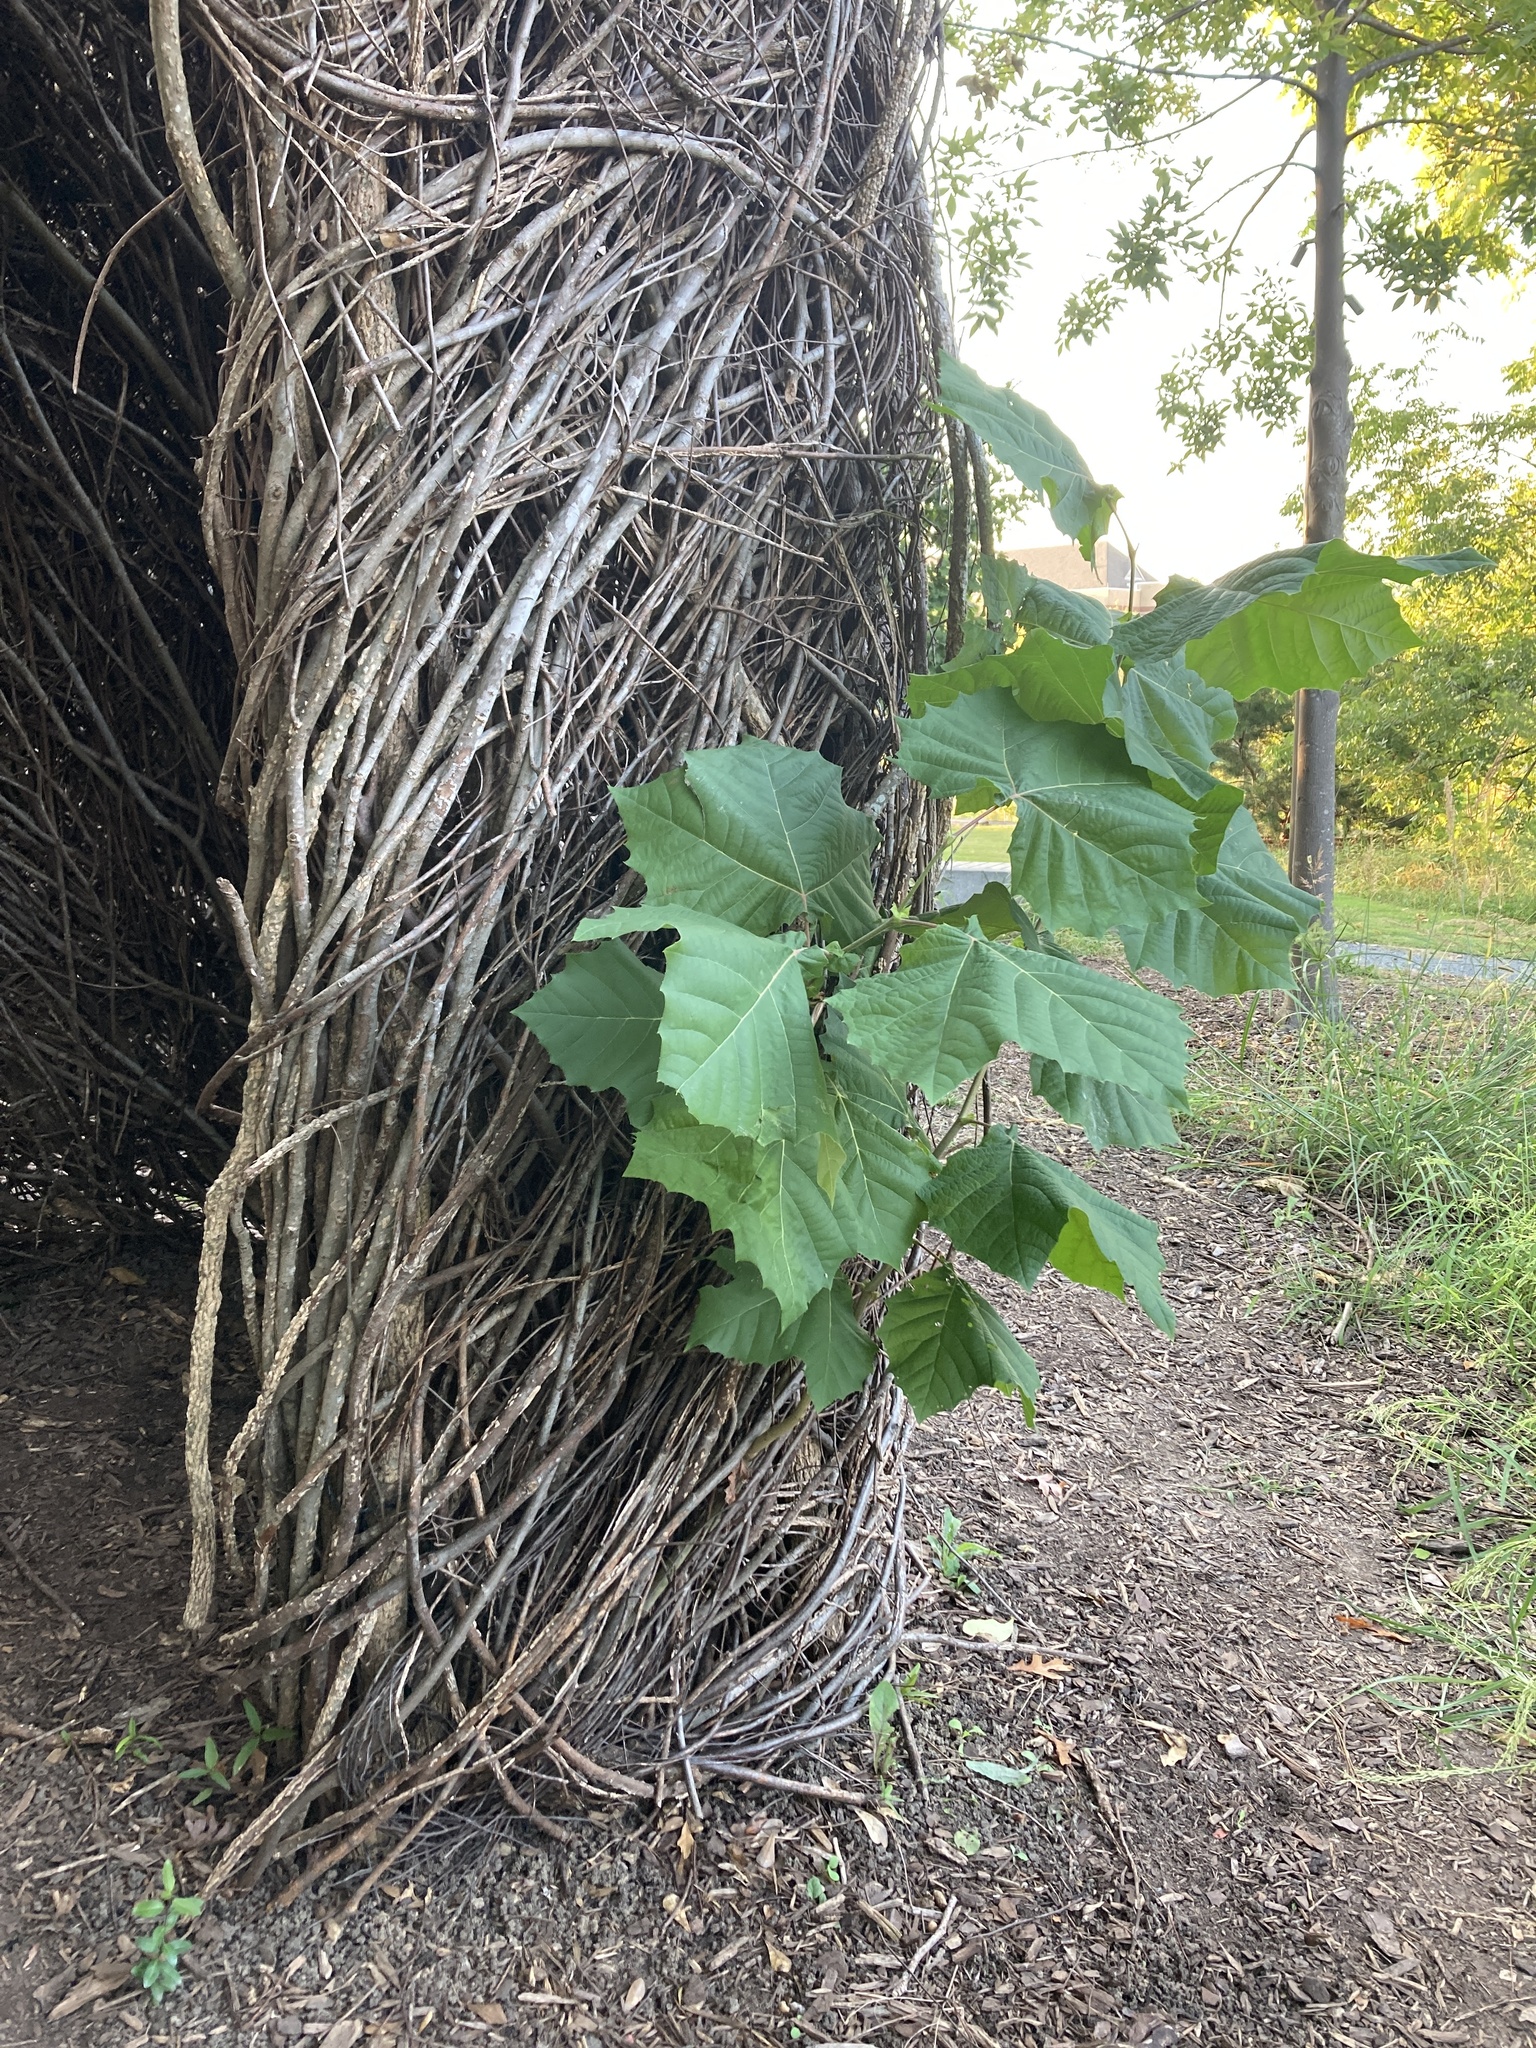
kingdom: Plantae
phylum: Tracheophyta
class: Magnoliopsida
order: Proteales
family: Platanaceae
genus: Platanus
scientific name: Platanus occidentalis
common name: American sycamore
